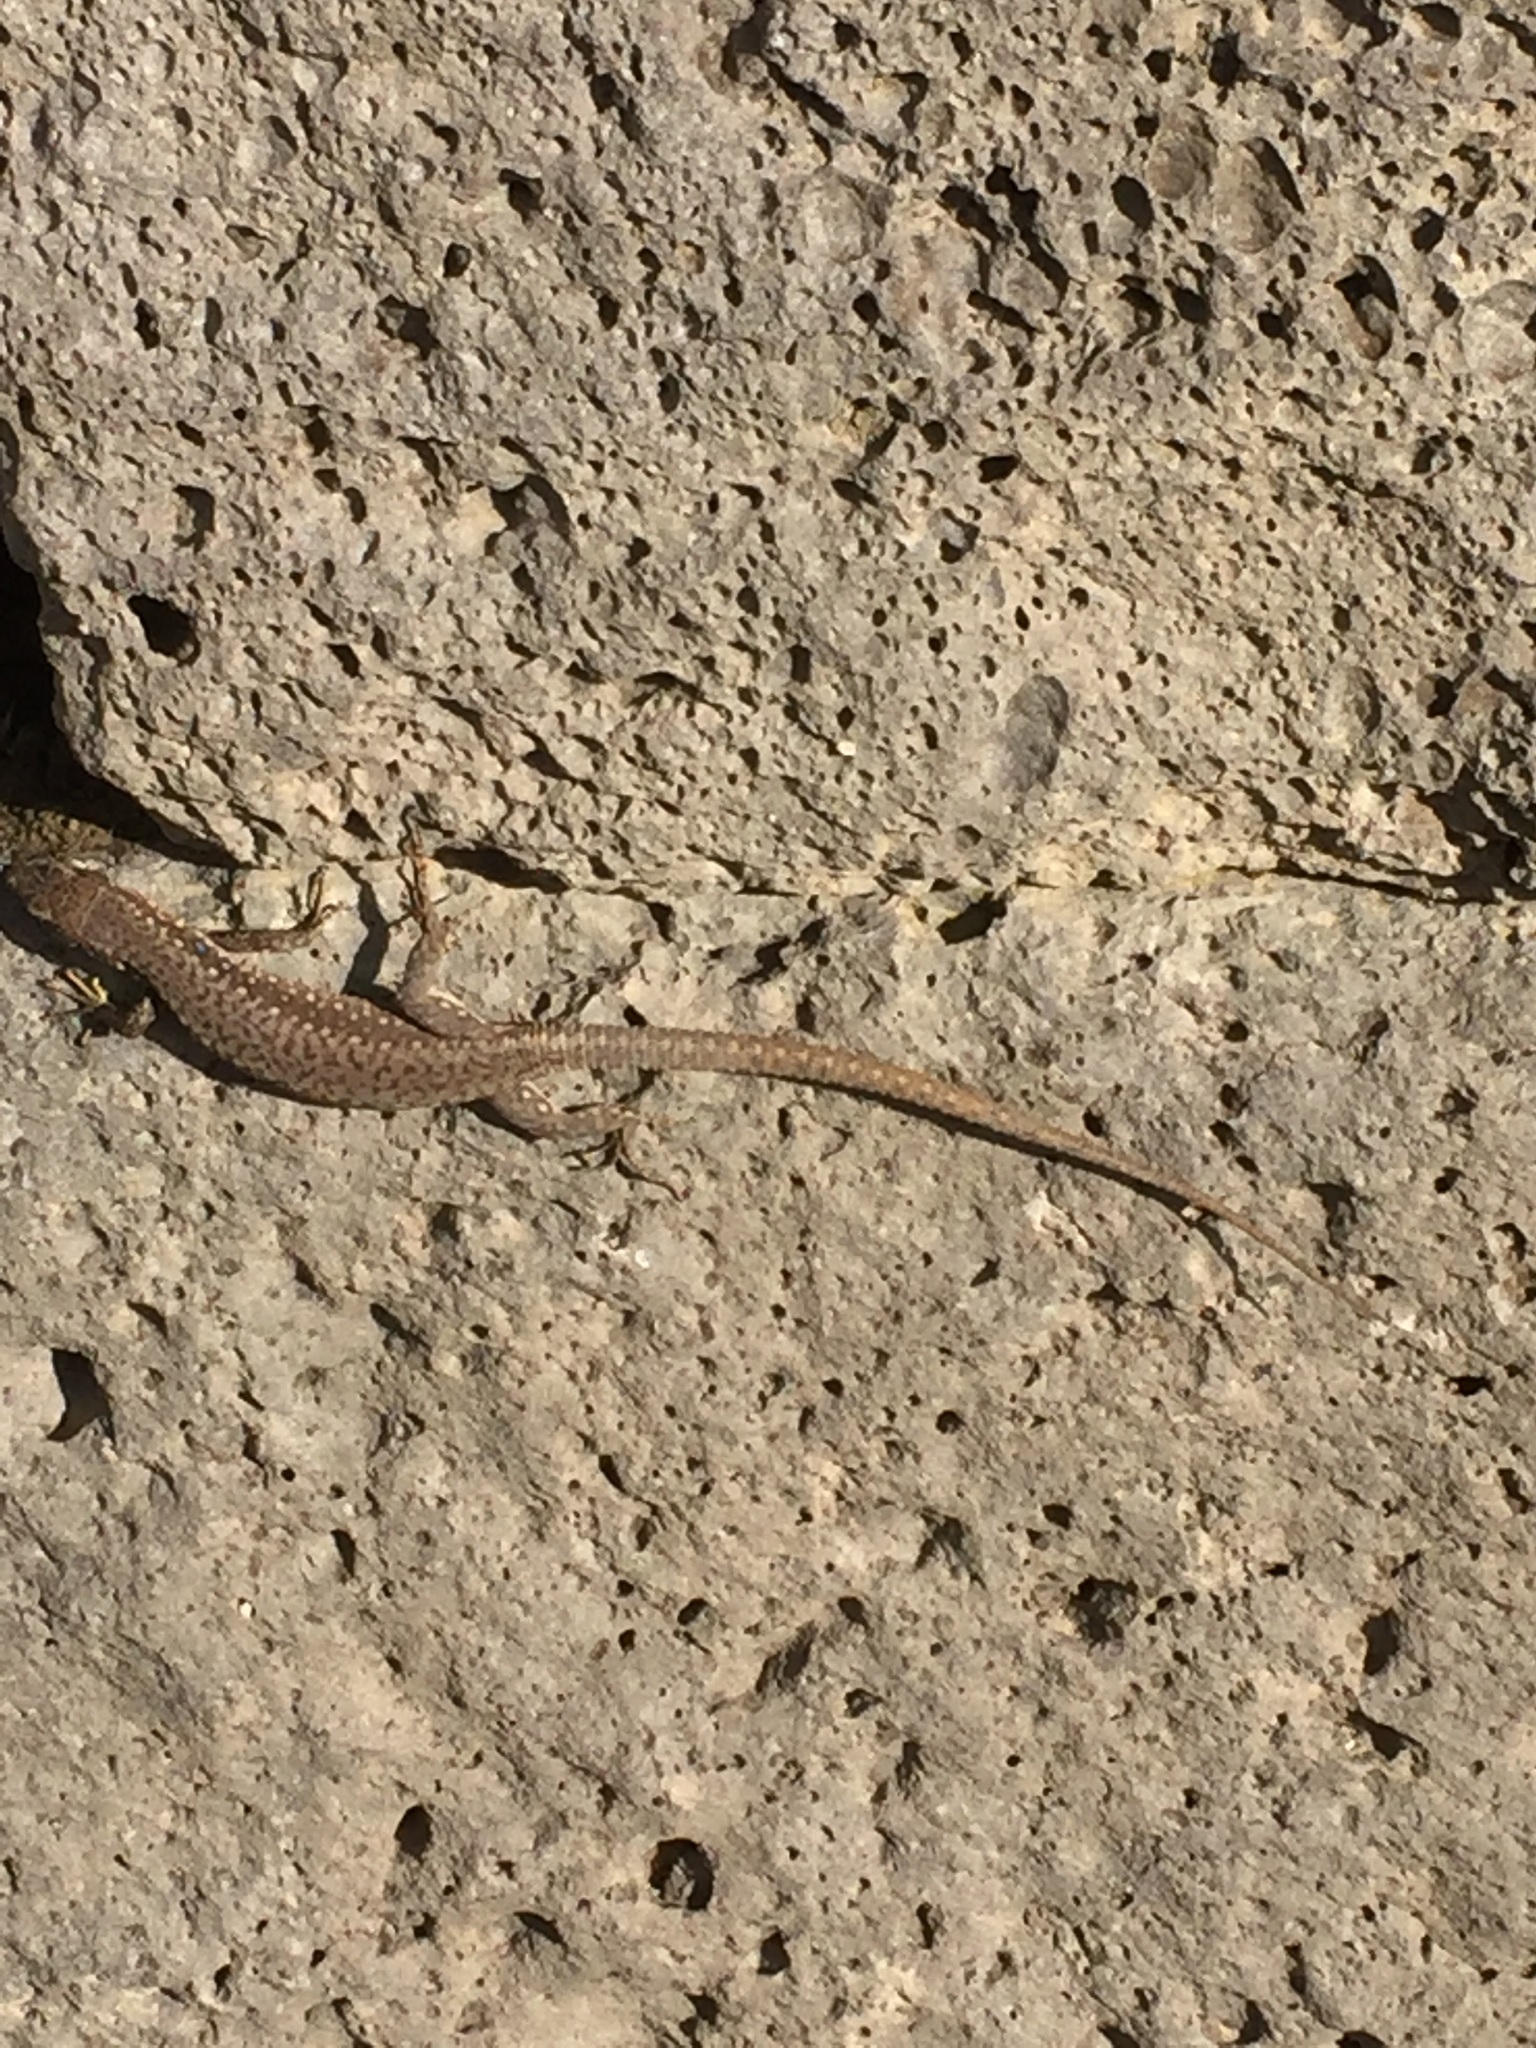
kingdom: Animalia
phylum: Chordata
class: Squamata
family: Lacertidae
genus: Darevskia
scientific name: Darevskia raddei
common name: Radde's lizard
